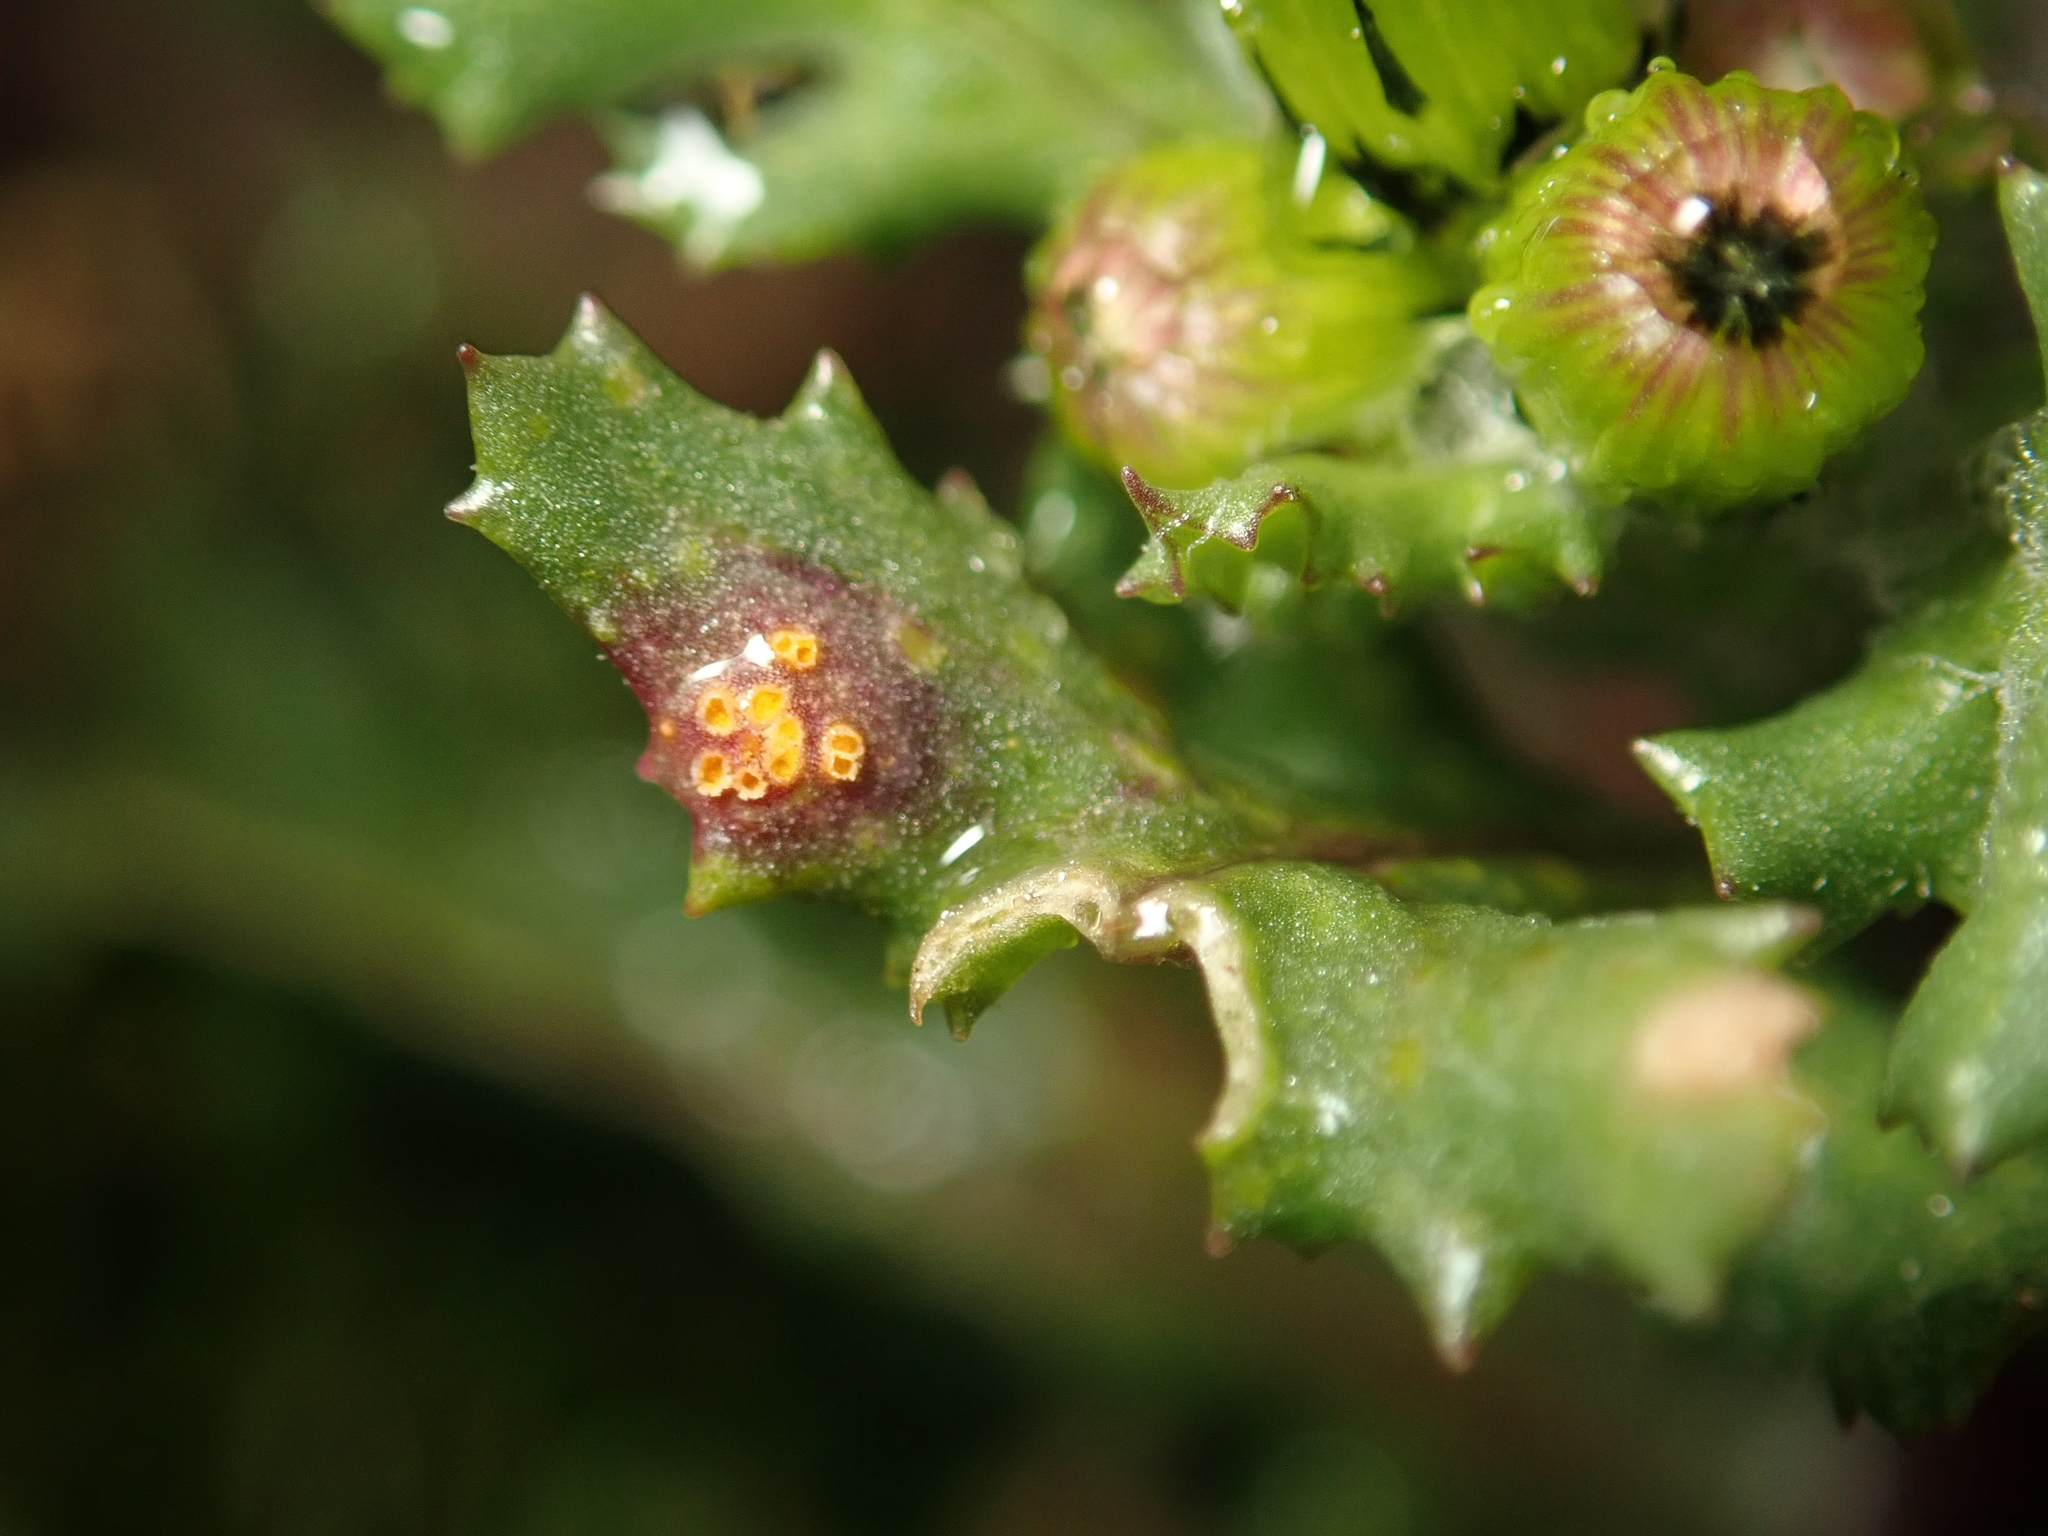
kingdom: Fungi
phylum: Basidiomycota
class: Pucciniomycetes
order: Pucciniales
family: Pucciniaceae
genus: Puccinia
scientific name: Puccinia lagenophorae
